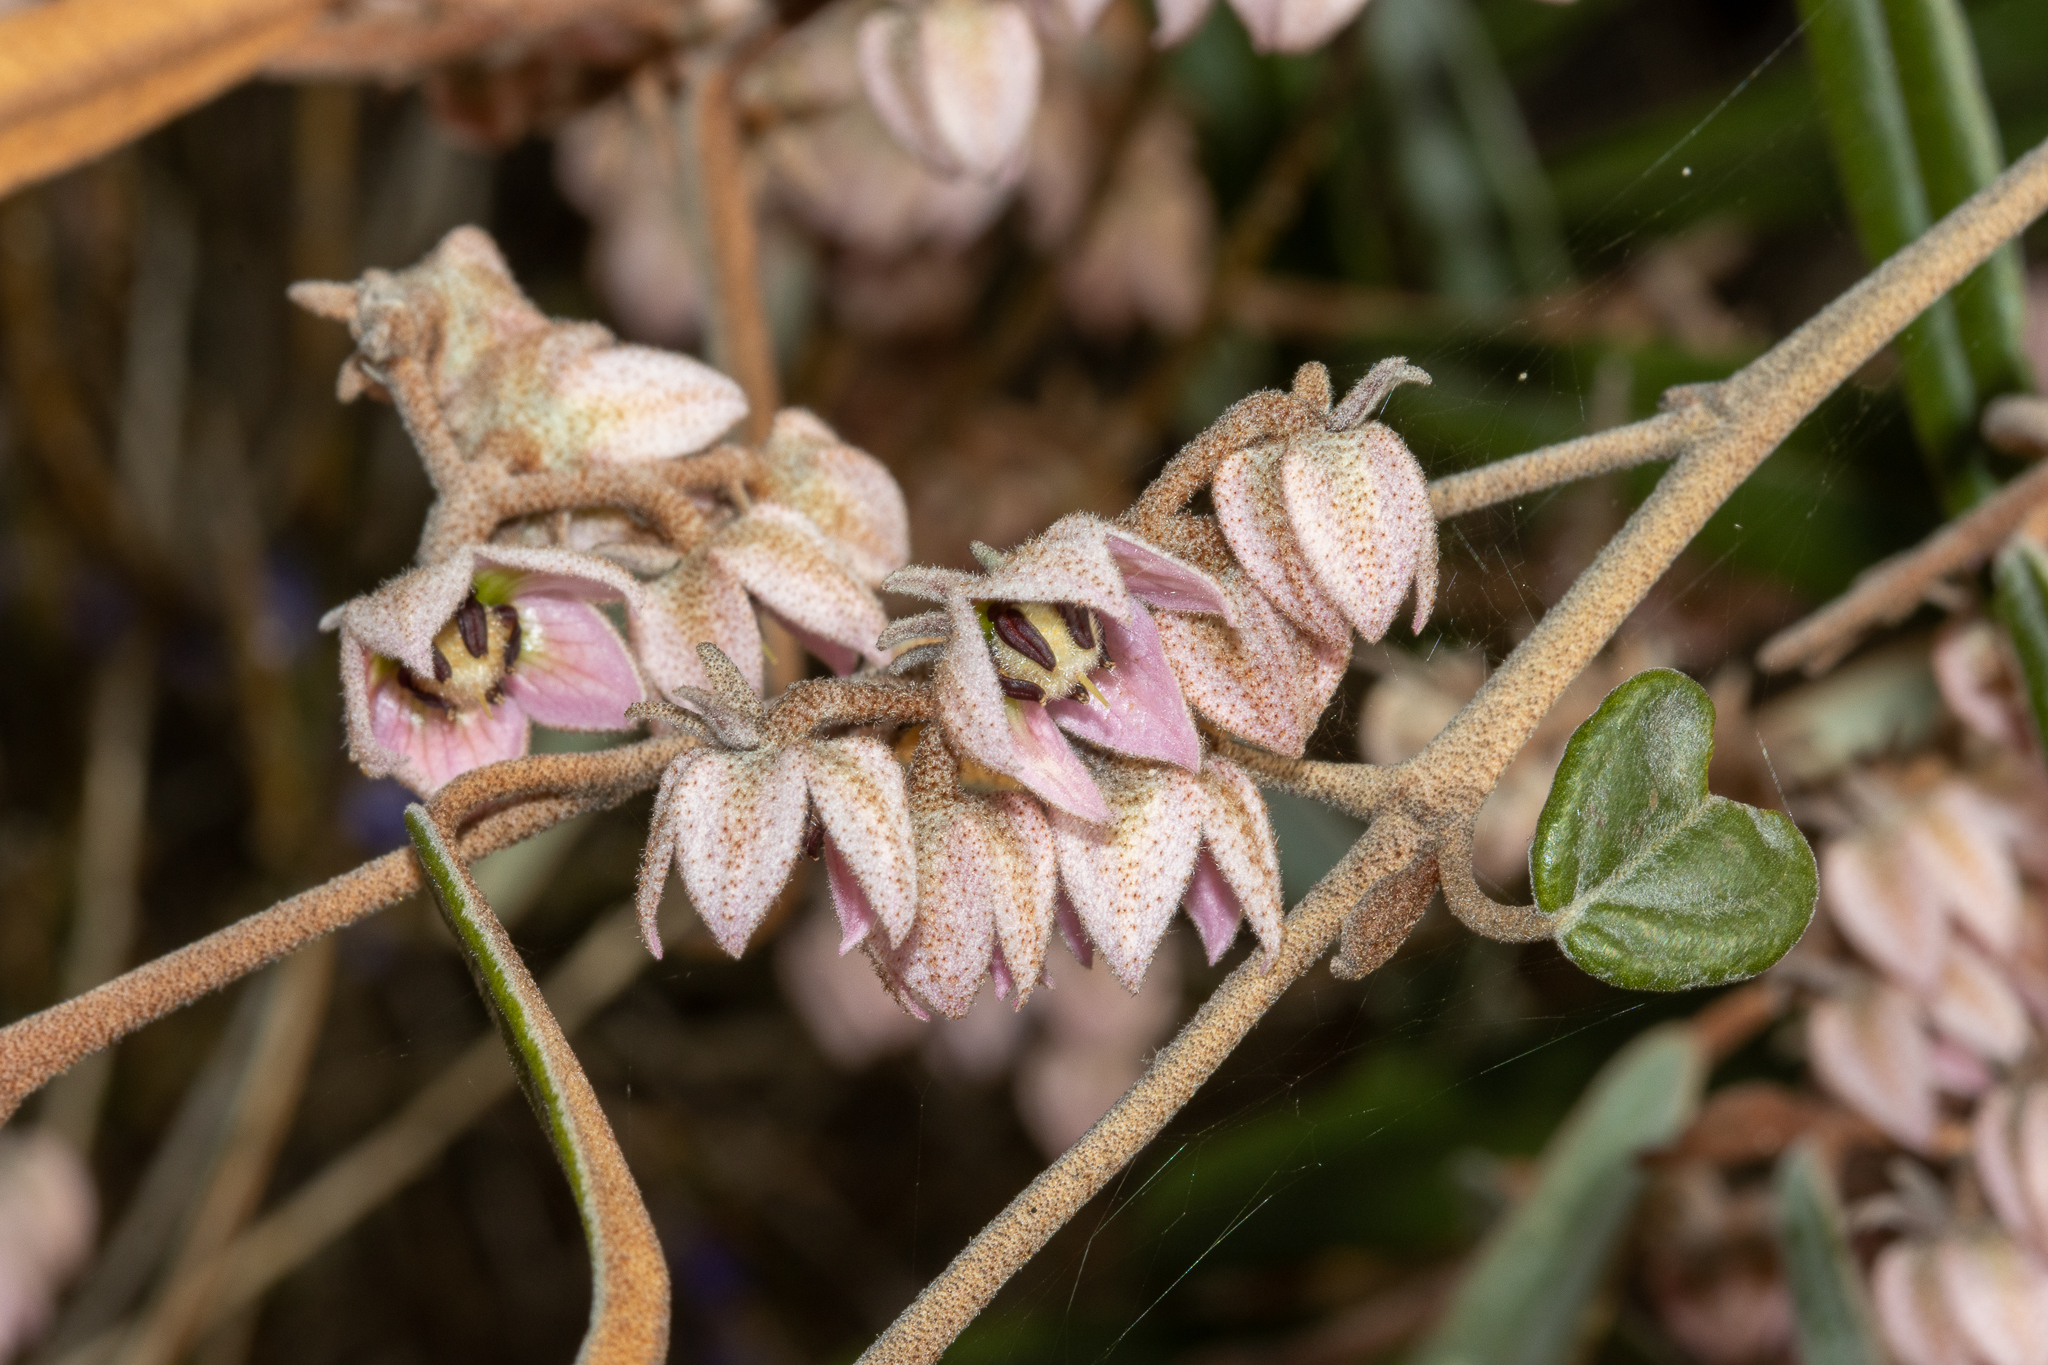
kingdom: Plantae
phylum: Tracheophyta
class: Magnoliopsida
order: Malvales
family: Malvaceae
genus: Lasiopetalum
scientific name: Lasiopetalum behrii
